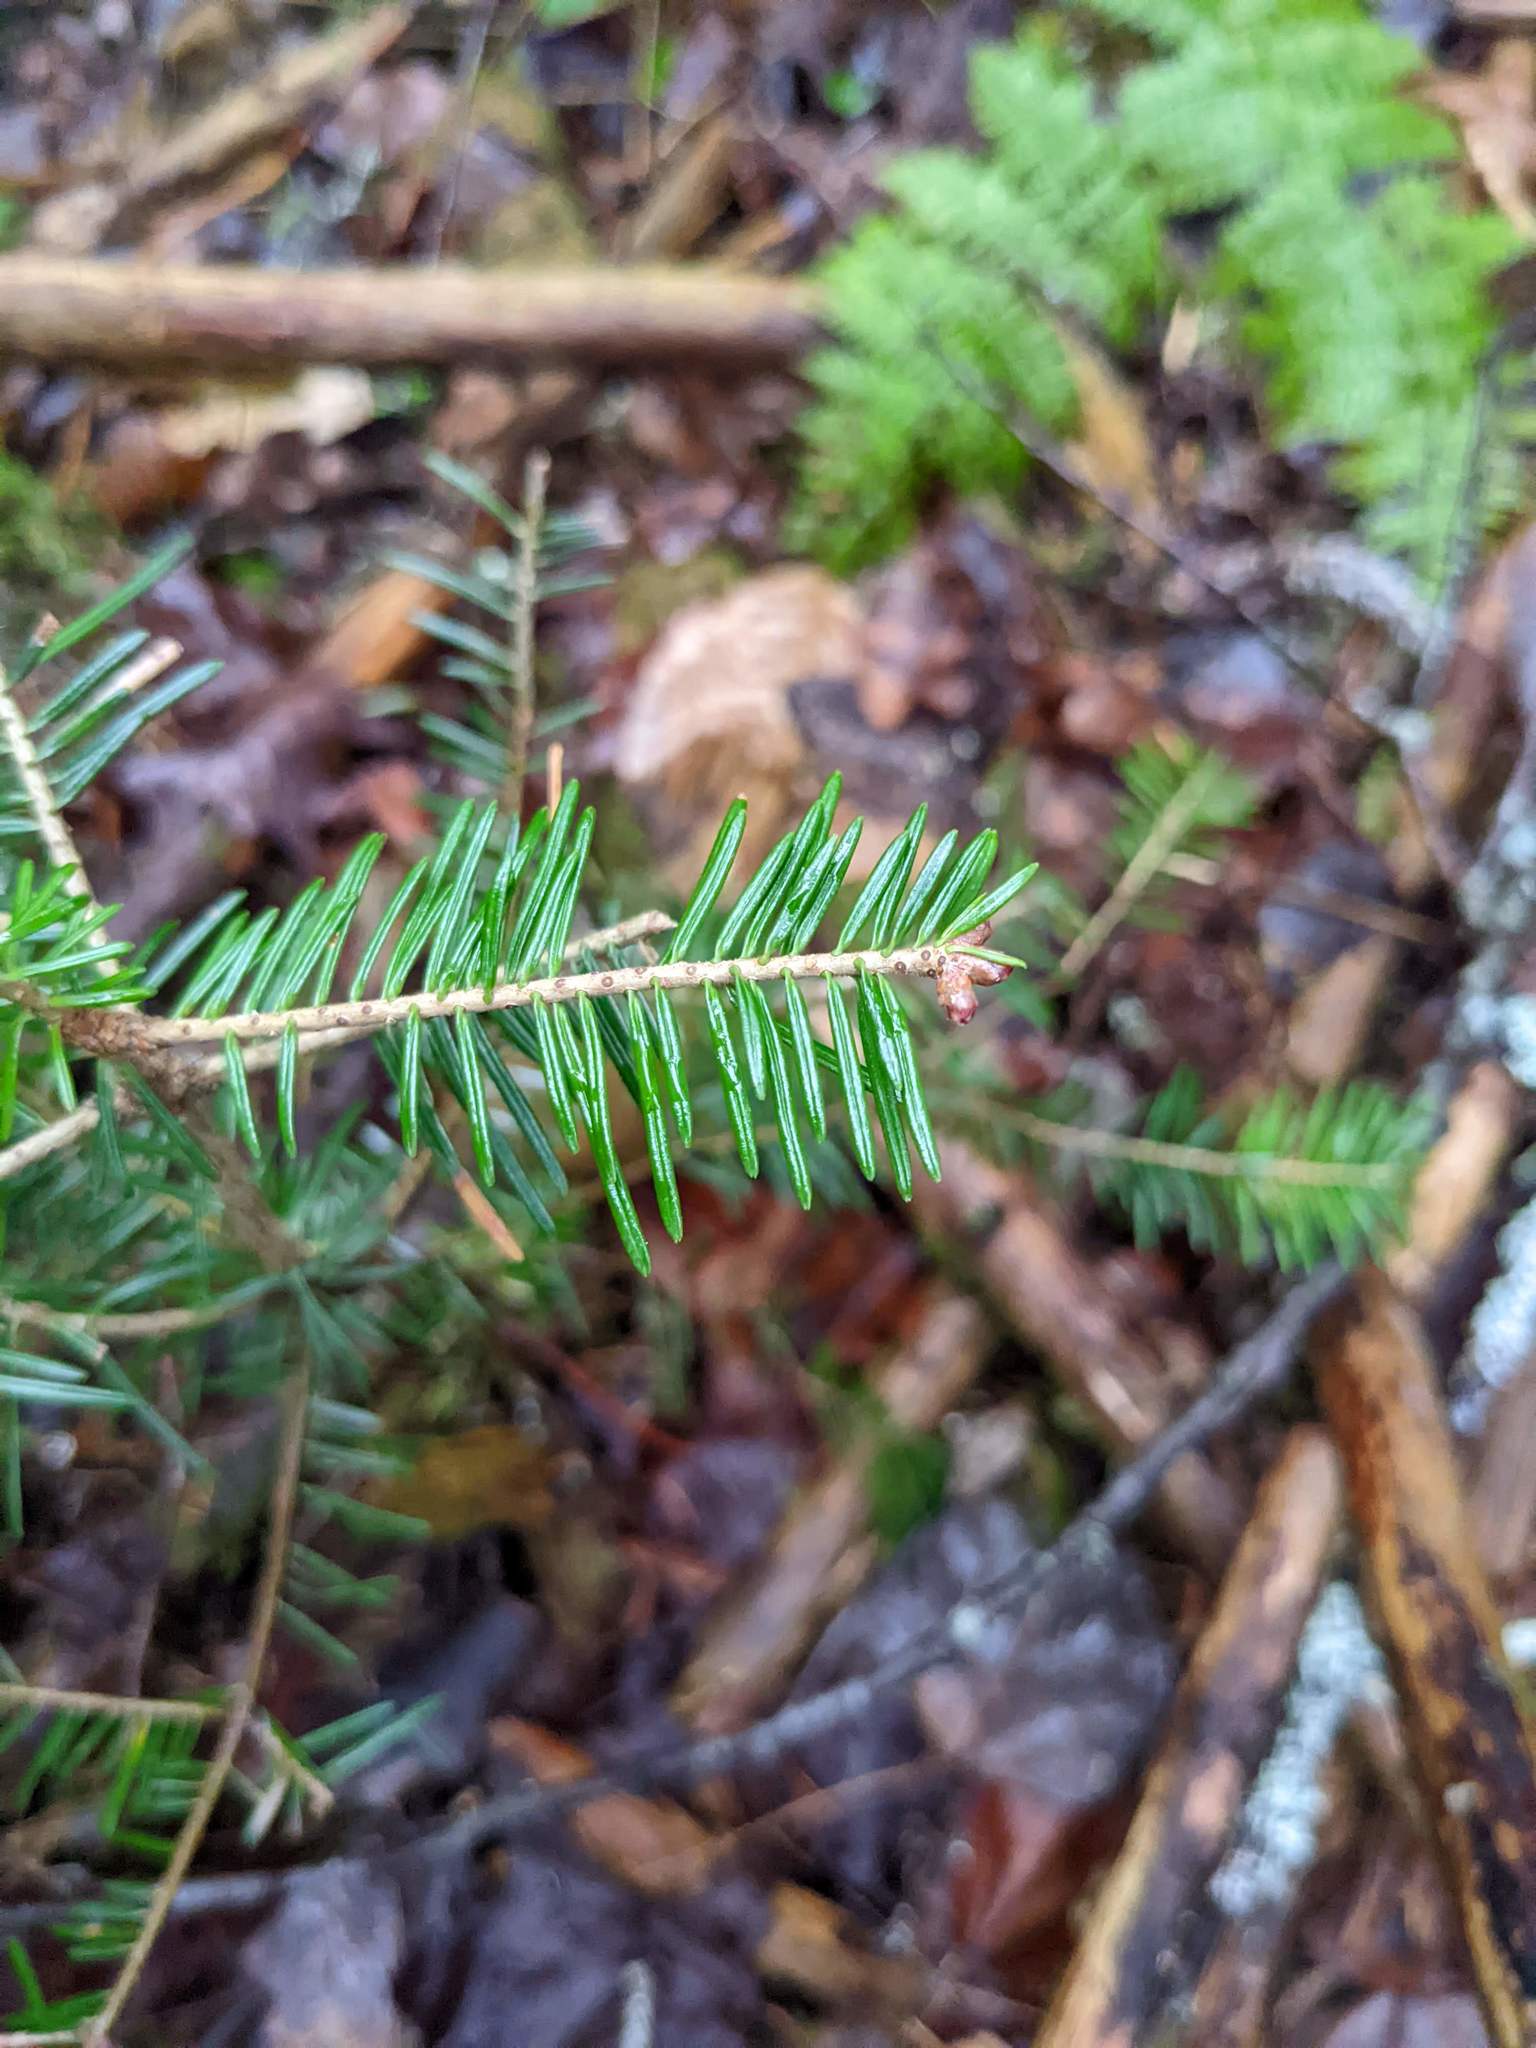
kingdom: Plantae
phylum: Tracheophyta
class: Pinopsida
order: Pinales
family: Pinaceae
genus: Abies
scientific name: Abies balsamea
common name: Balsam fir
